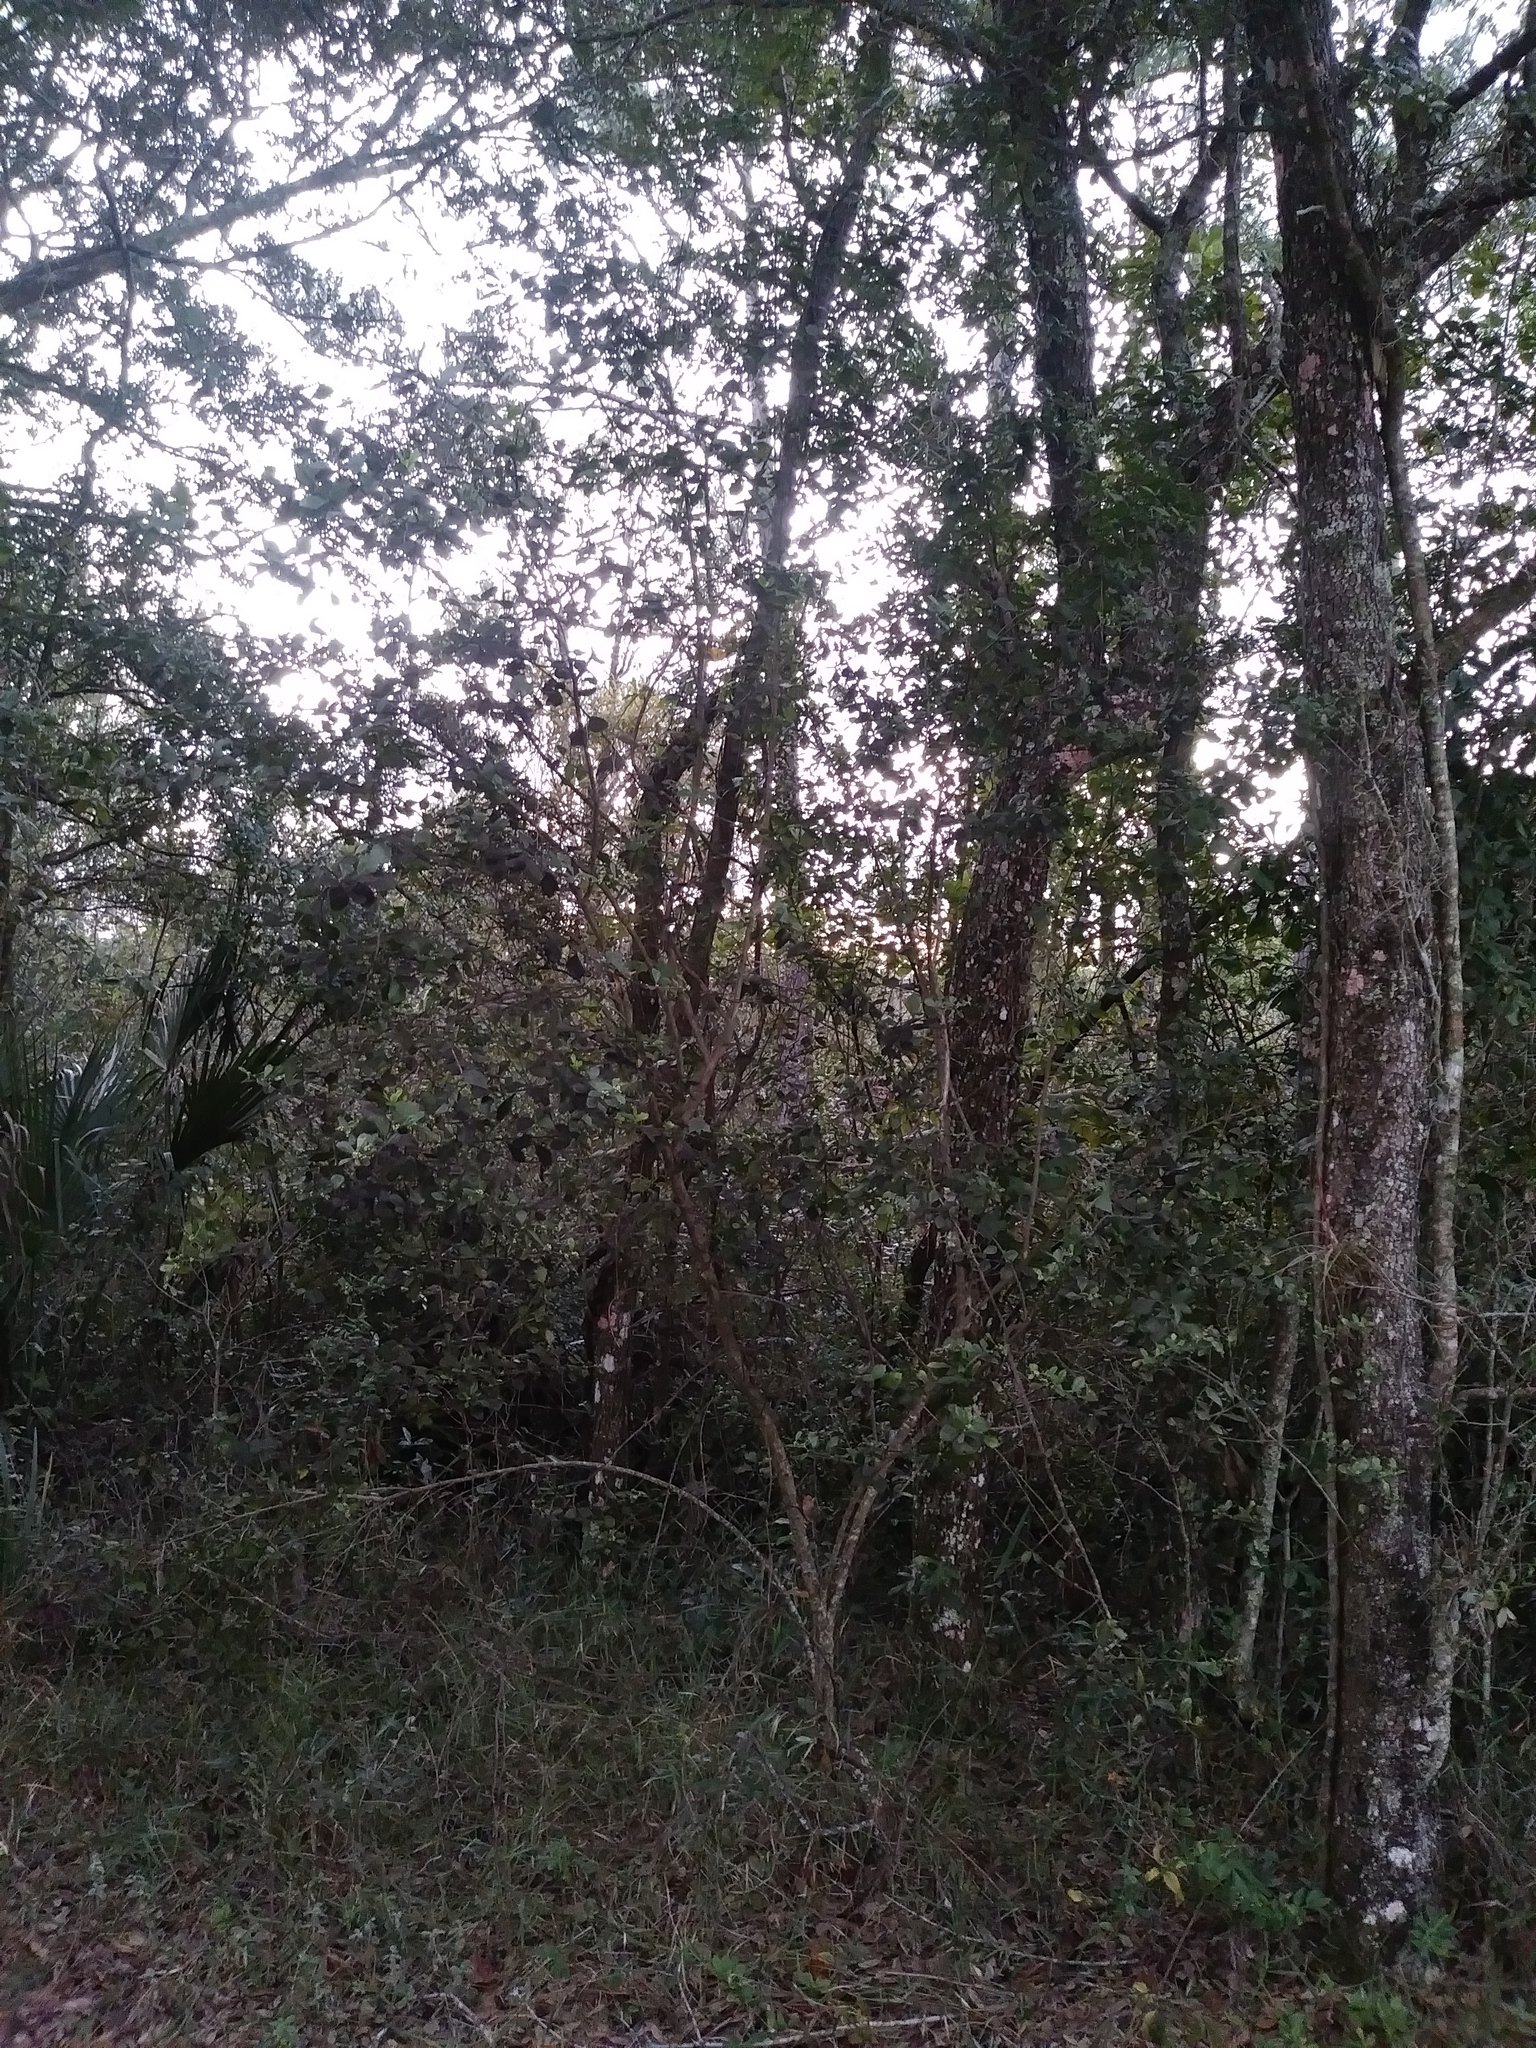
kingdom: Plantae
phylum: Tracheophyta
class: Magnoliopsida
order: Asterales
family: Asteraceae
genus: Baccharis
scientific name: Baccharis glomeruliflora
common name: Silverling groundsel bush
